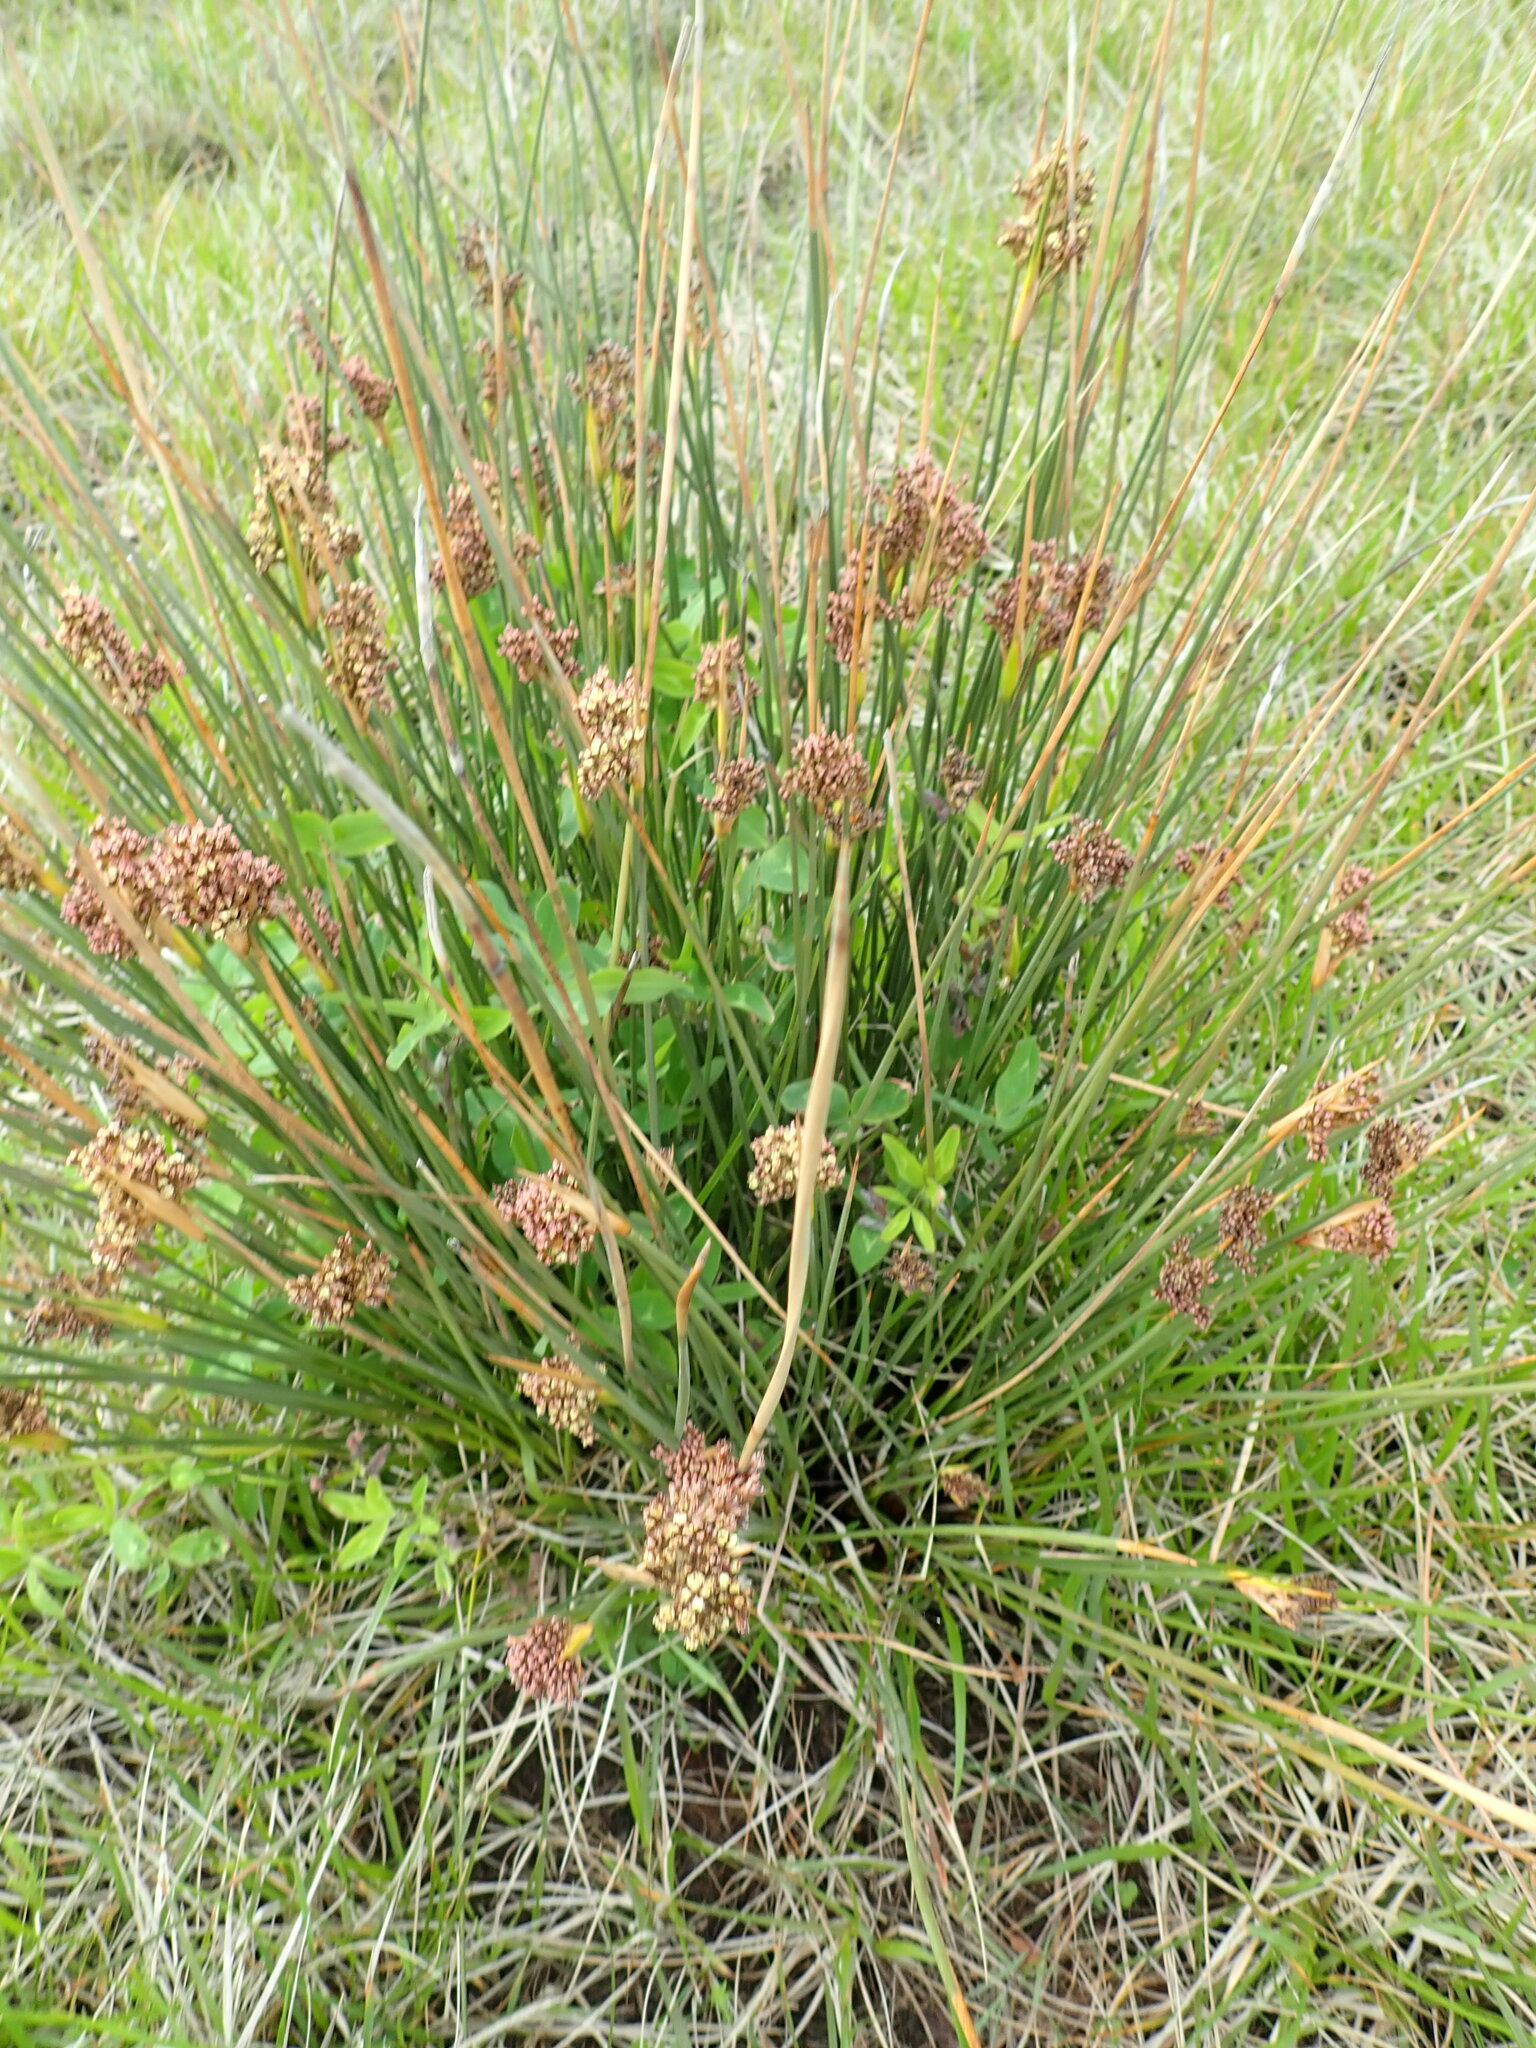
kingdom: Plantae
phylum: Tracheophyta
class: Liliopsida
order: Poales
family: Juncaceae
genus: Juncus
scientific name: Juncus acutus
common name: Sharp rush
